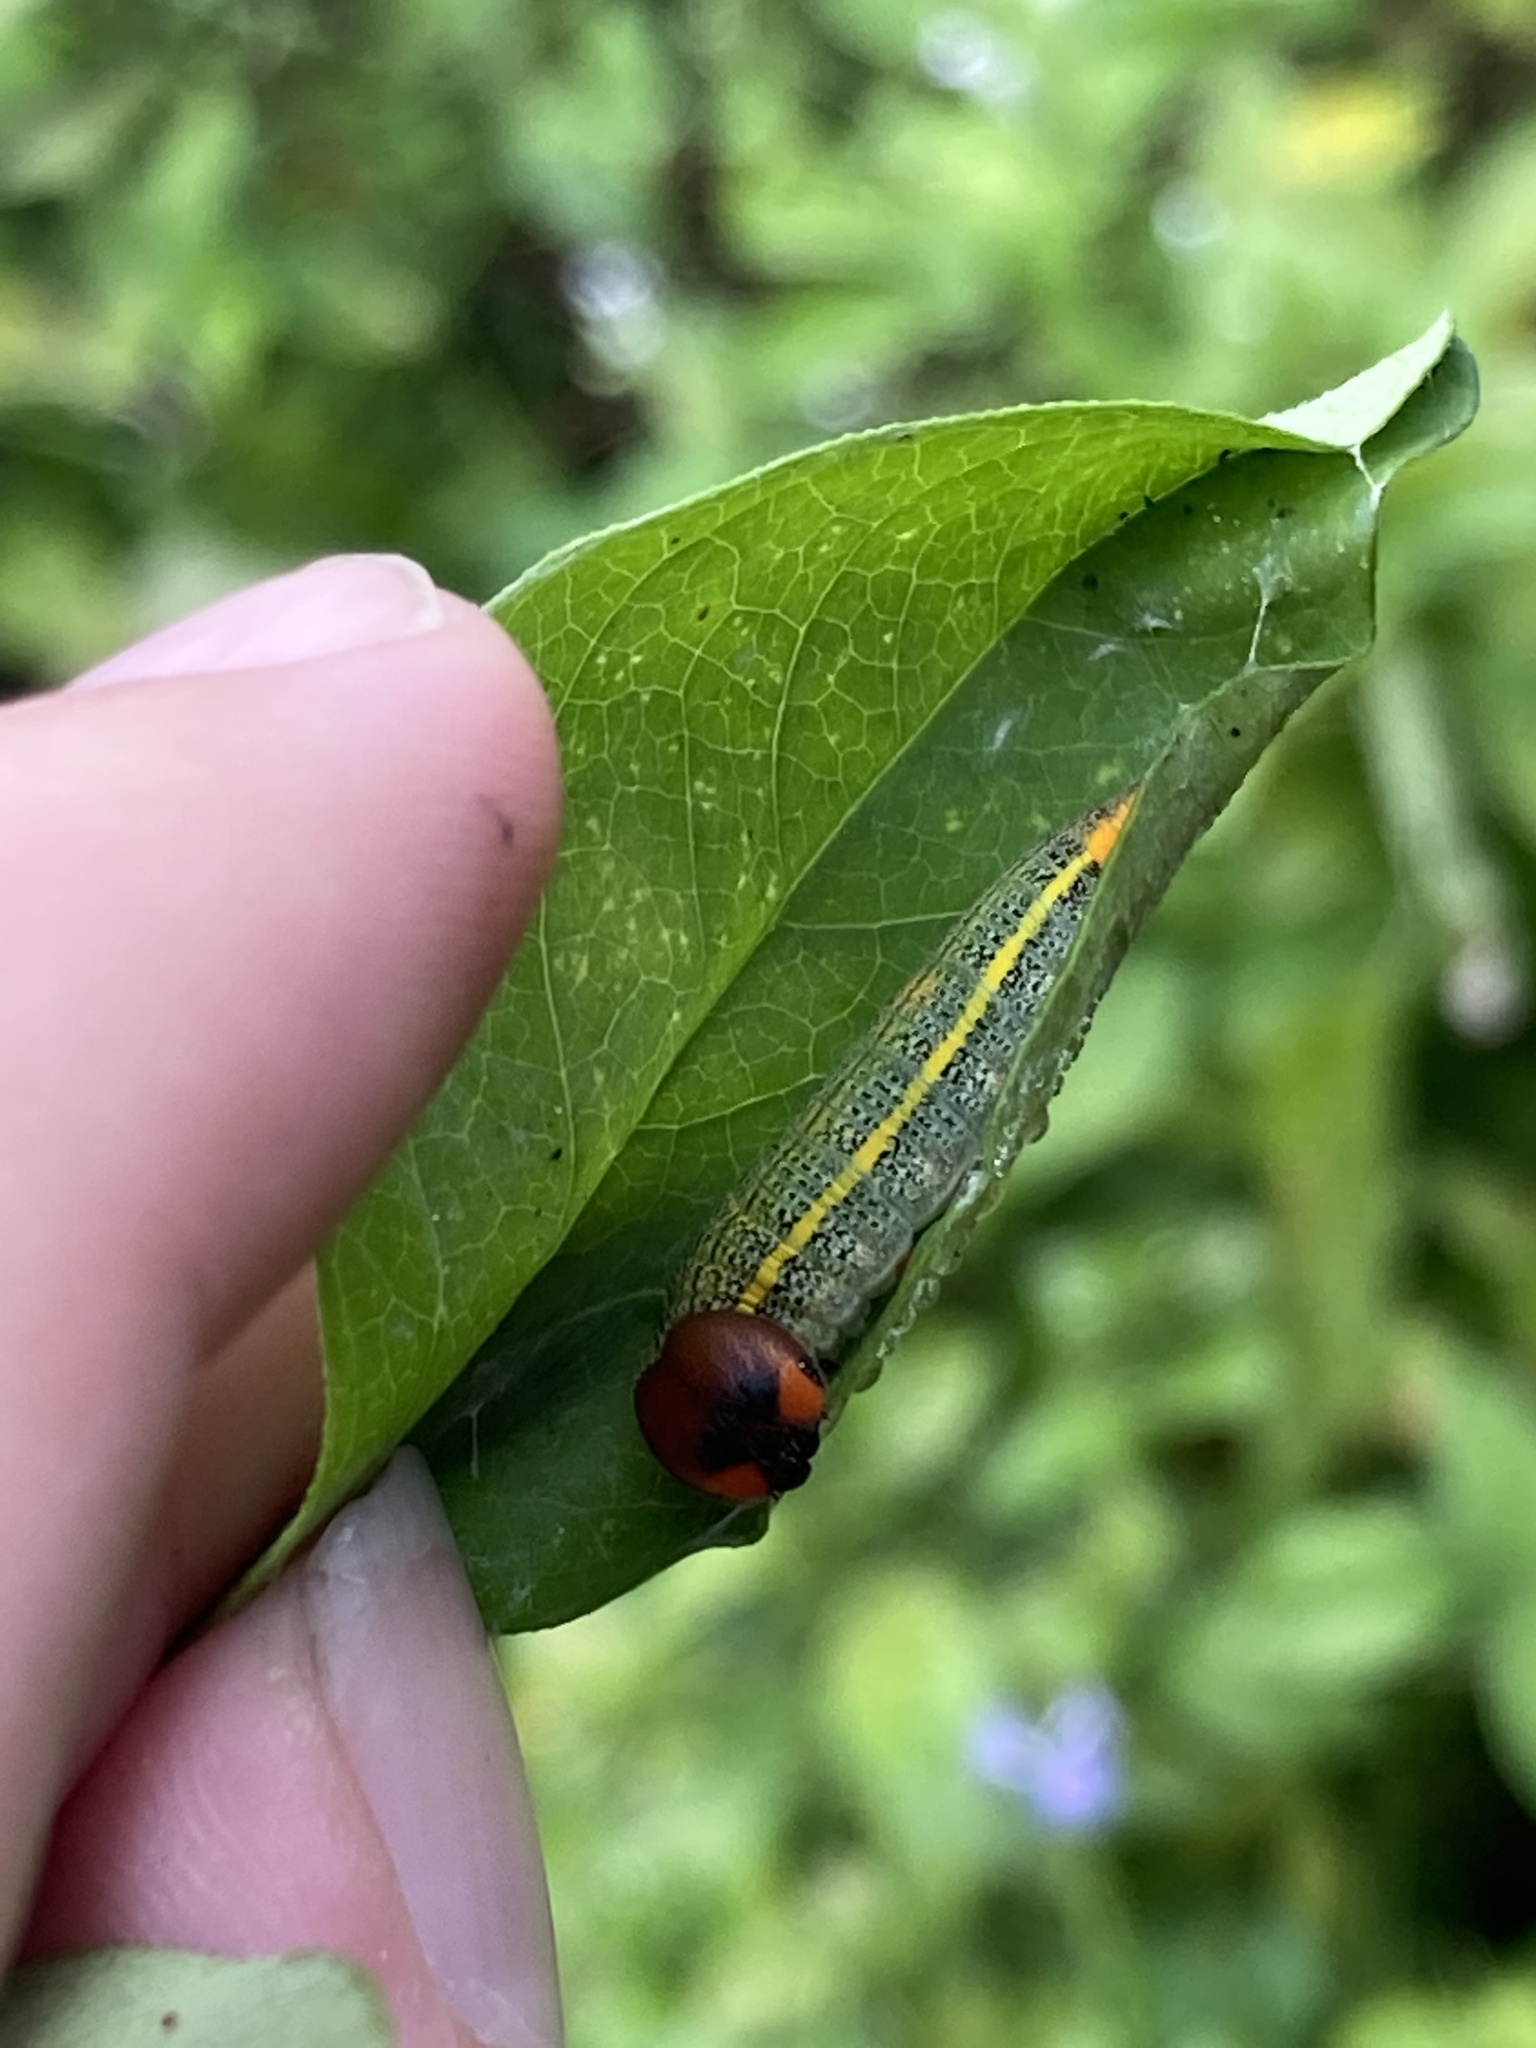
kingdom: Animalia
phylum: Arthropoda
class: Insecta
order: Lepidoptera
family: Hesperiidae
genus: Urbanus
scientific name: Urbanus proteus
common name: Long-tailed skipper
